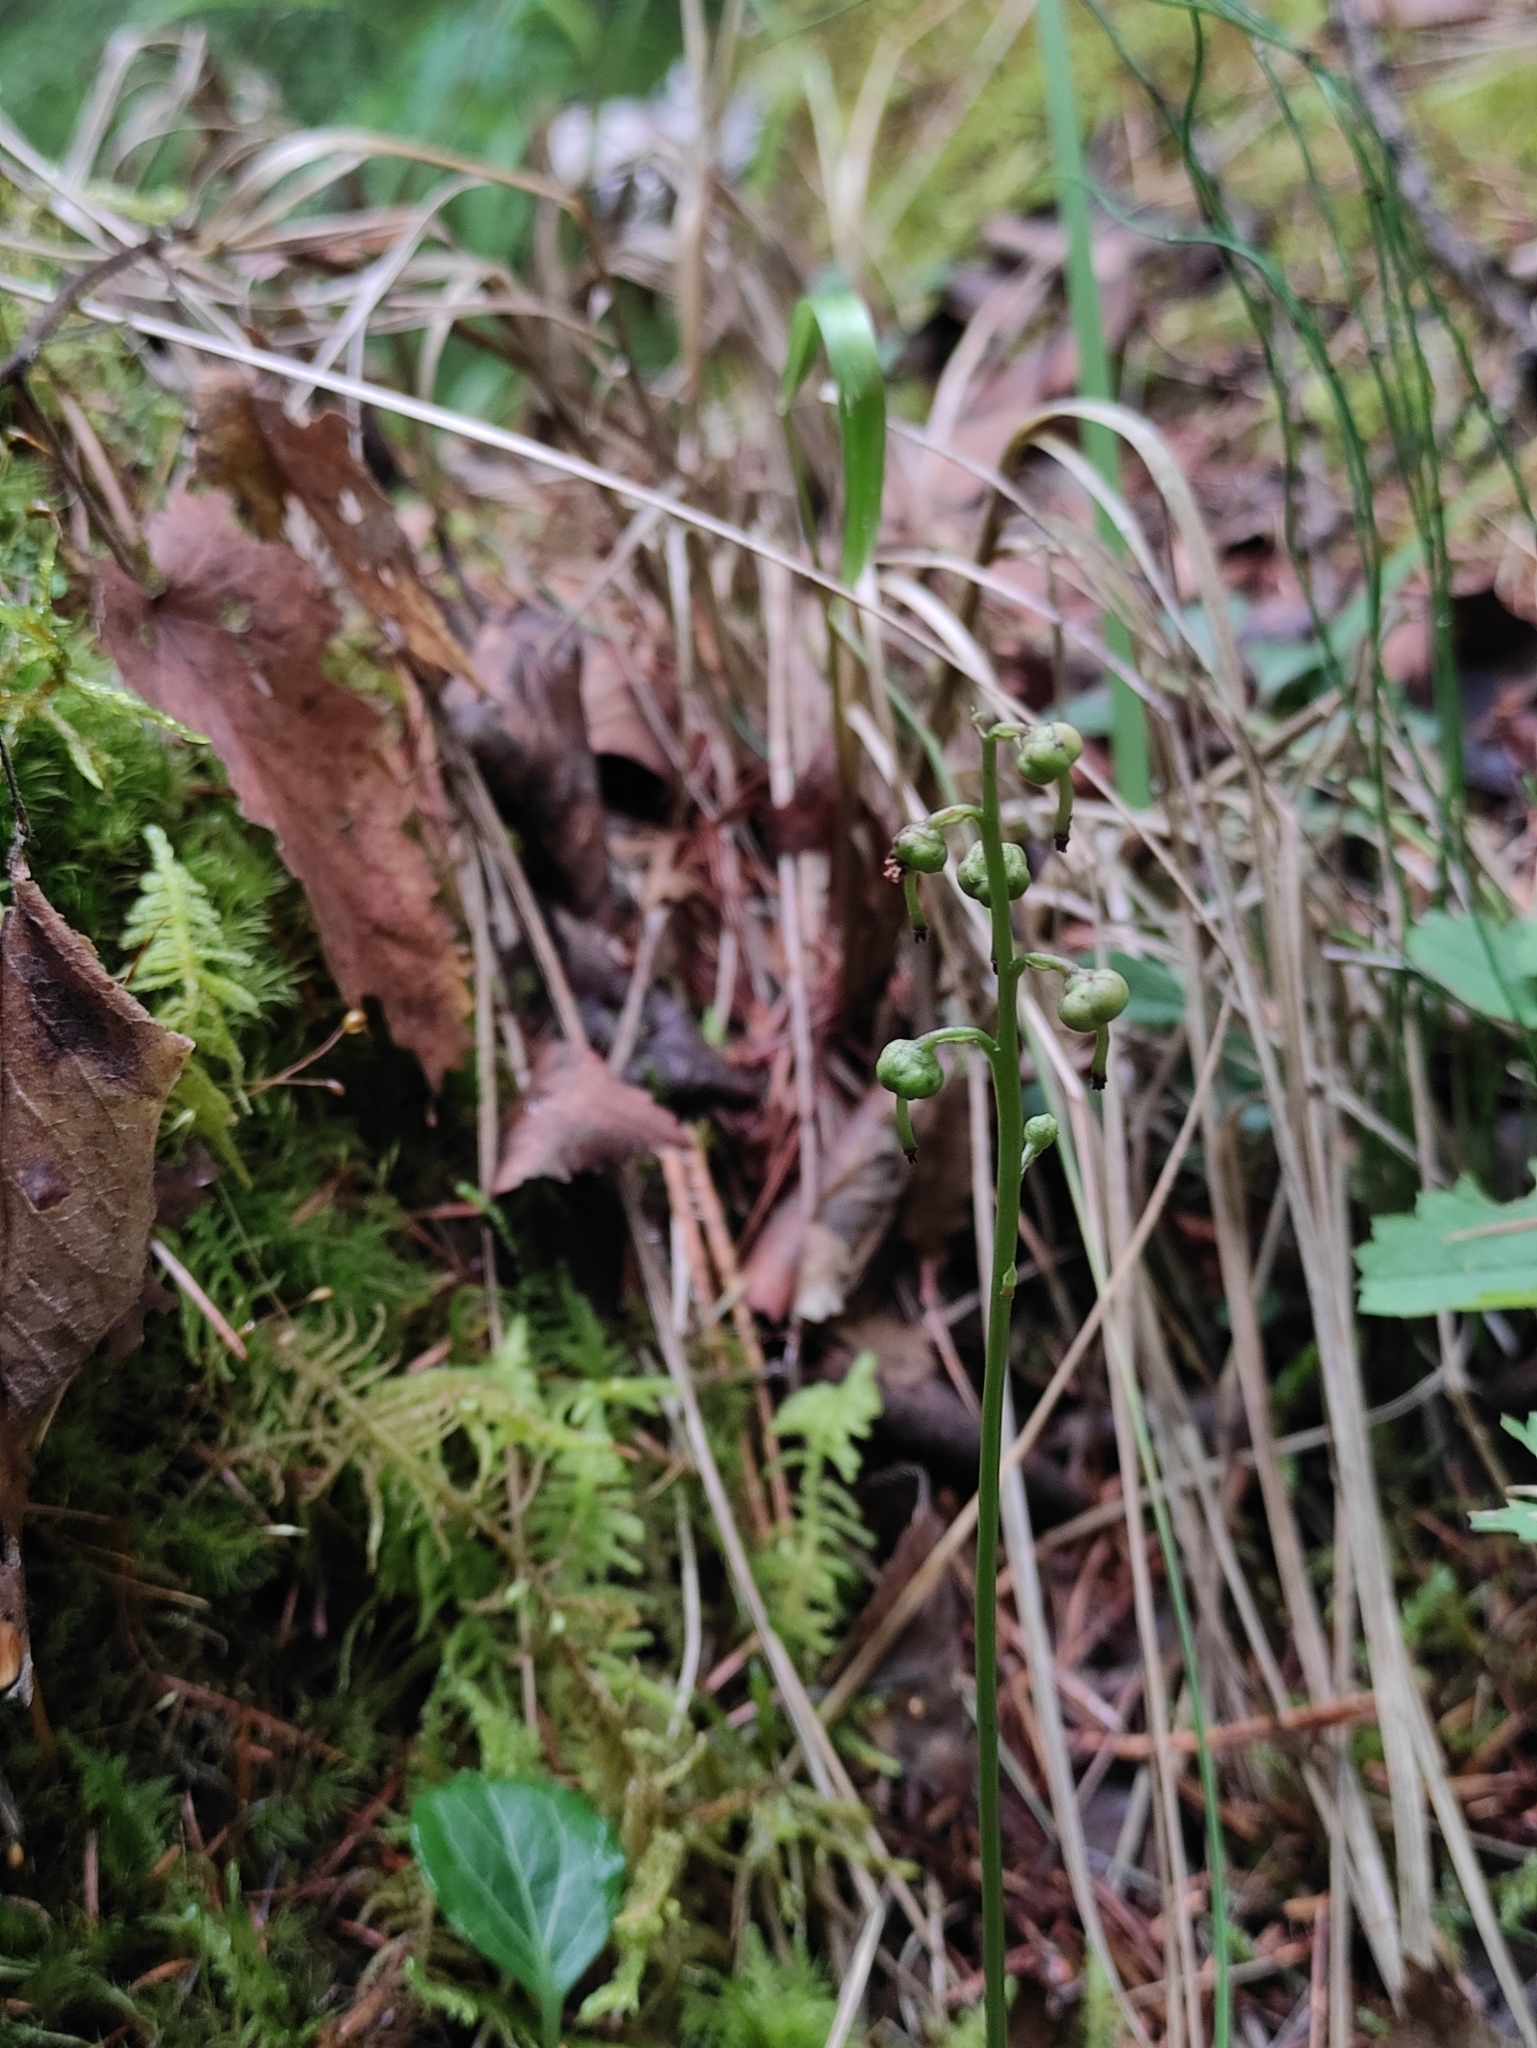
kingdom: Plantae
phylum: Tracheophyta
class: Magnoliopsida
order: Ericales
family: Ericaceae
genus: Pyrola
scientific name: Pyrola chlorantha
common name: Green wintergreen
